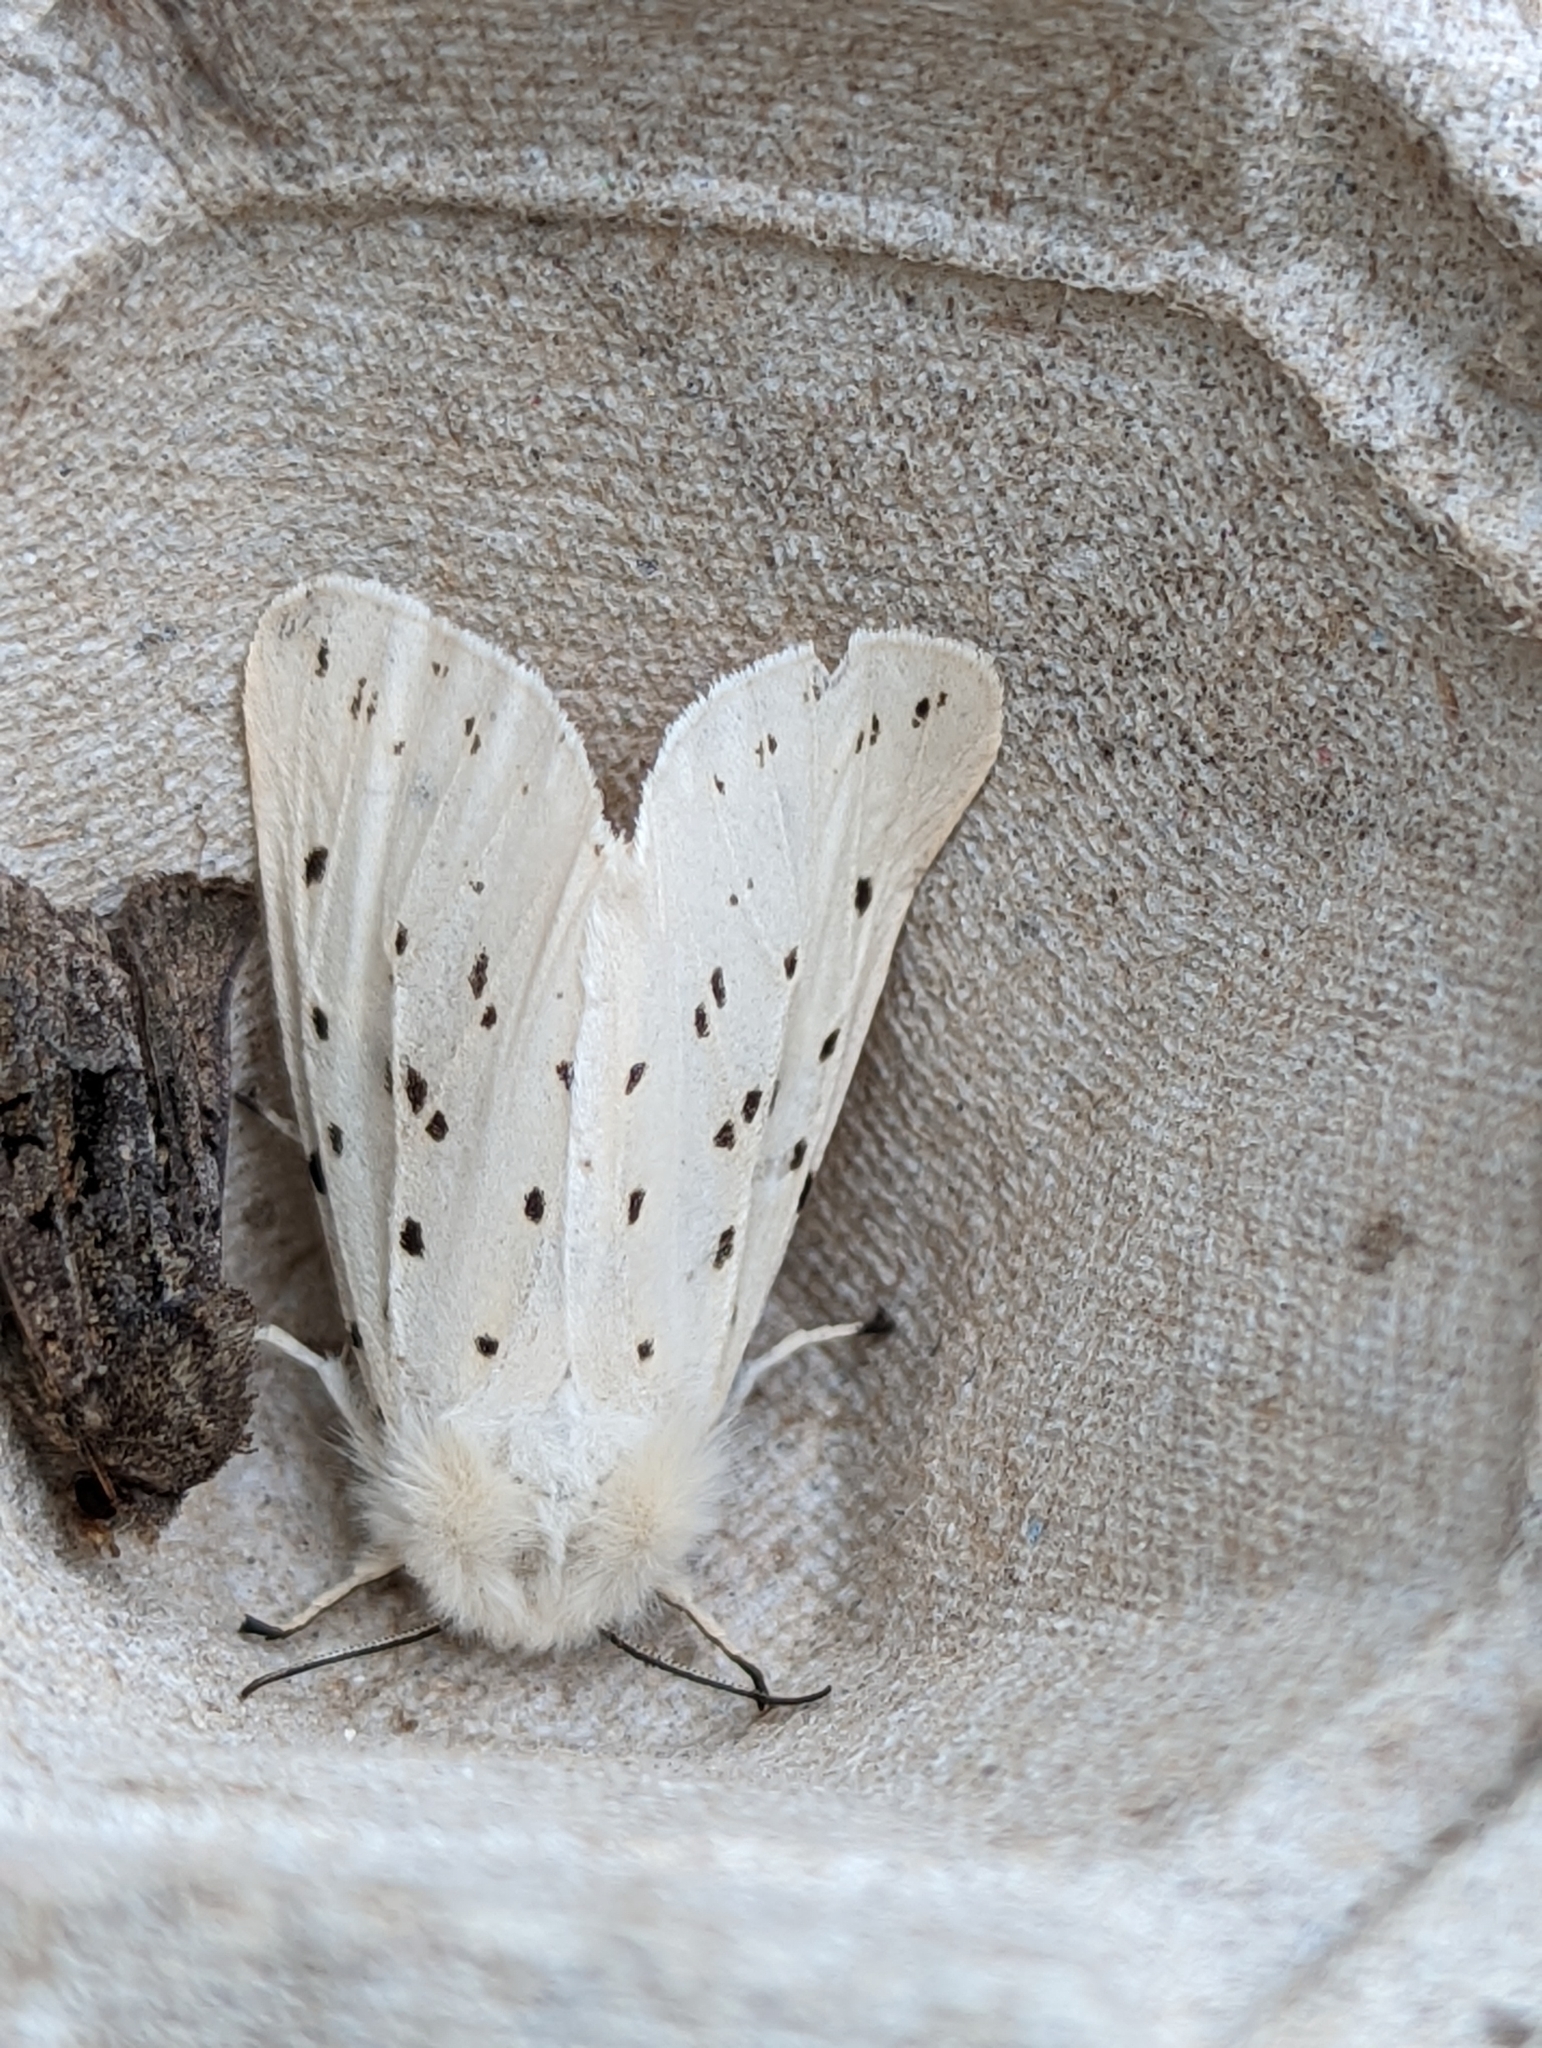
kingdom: Animalia
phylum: Arthropoda
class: Insecta
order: Lepidoptera
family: Erebidae
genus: Spilosoma
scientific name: Spilosoma lubricipeda
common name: White ermine
